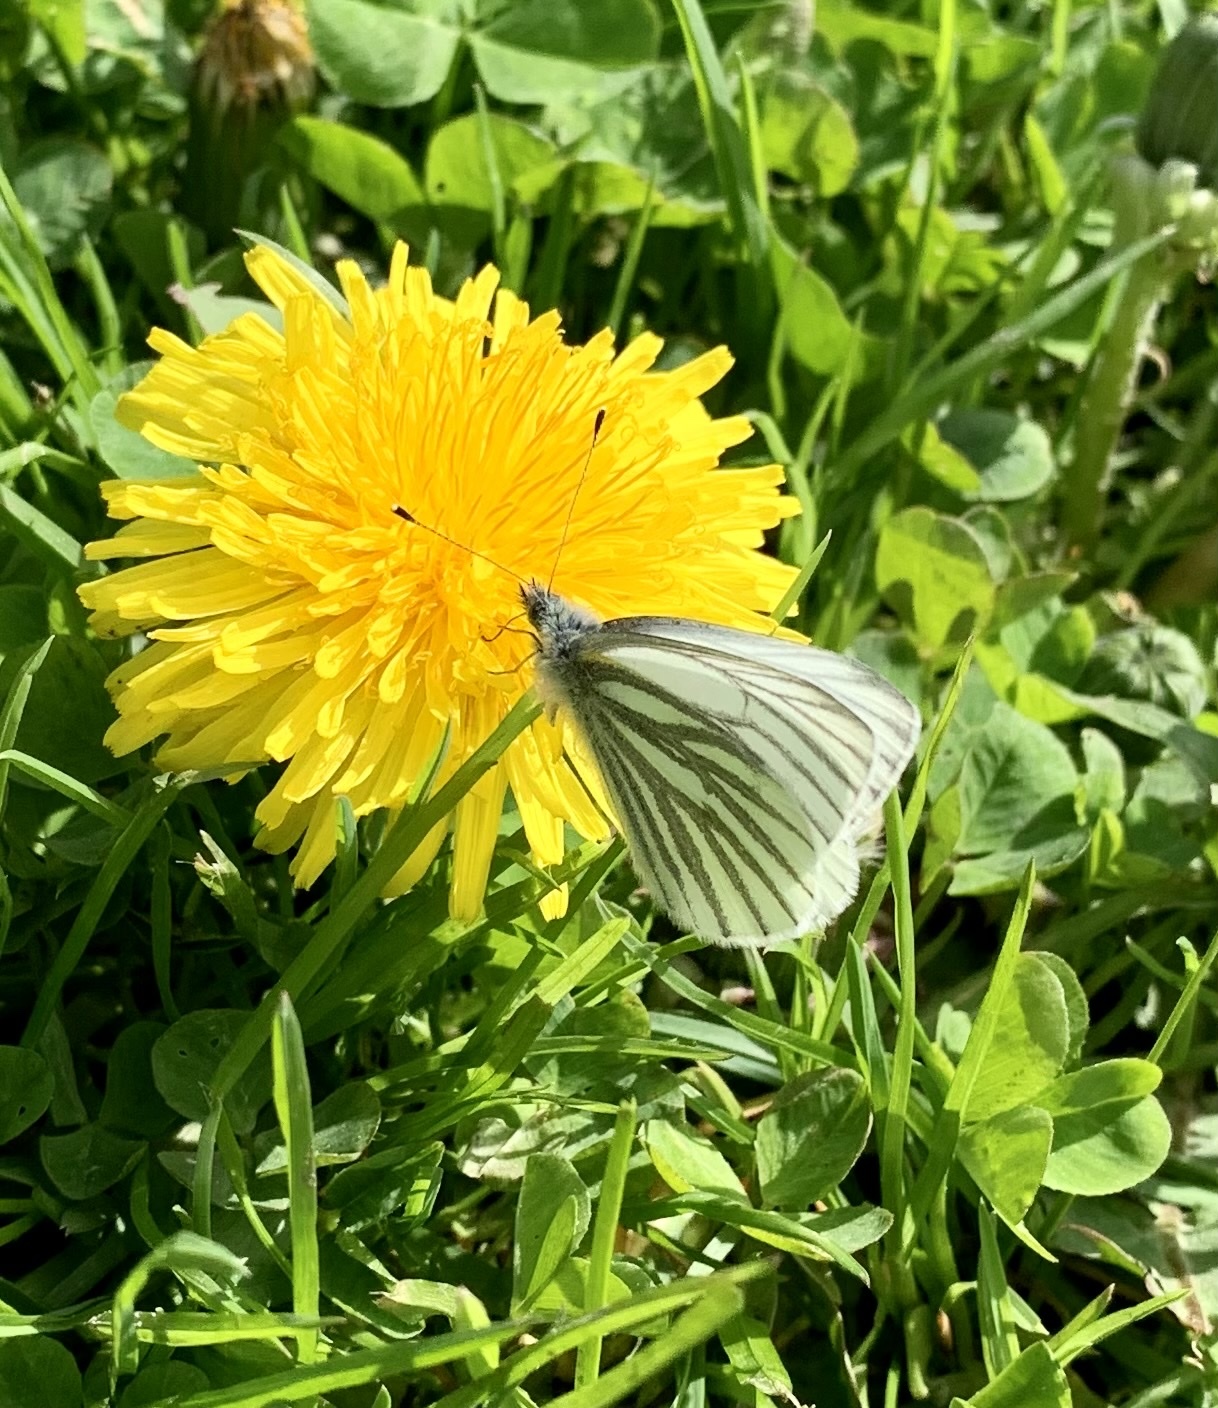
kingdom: Animalia
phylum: Arthropoda
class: Insecta
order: Lepidoptera
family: Pieridae
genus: Pieris
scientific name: Pieris napi
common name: Green-veined white
